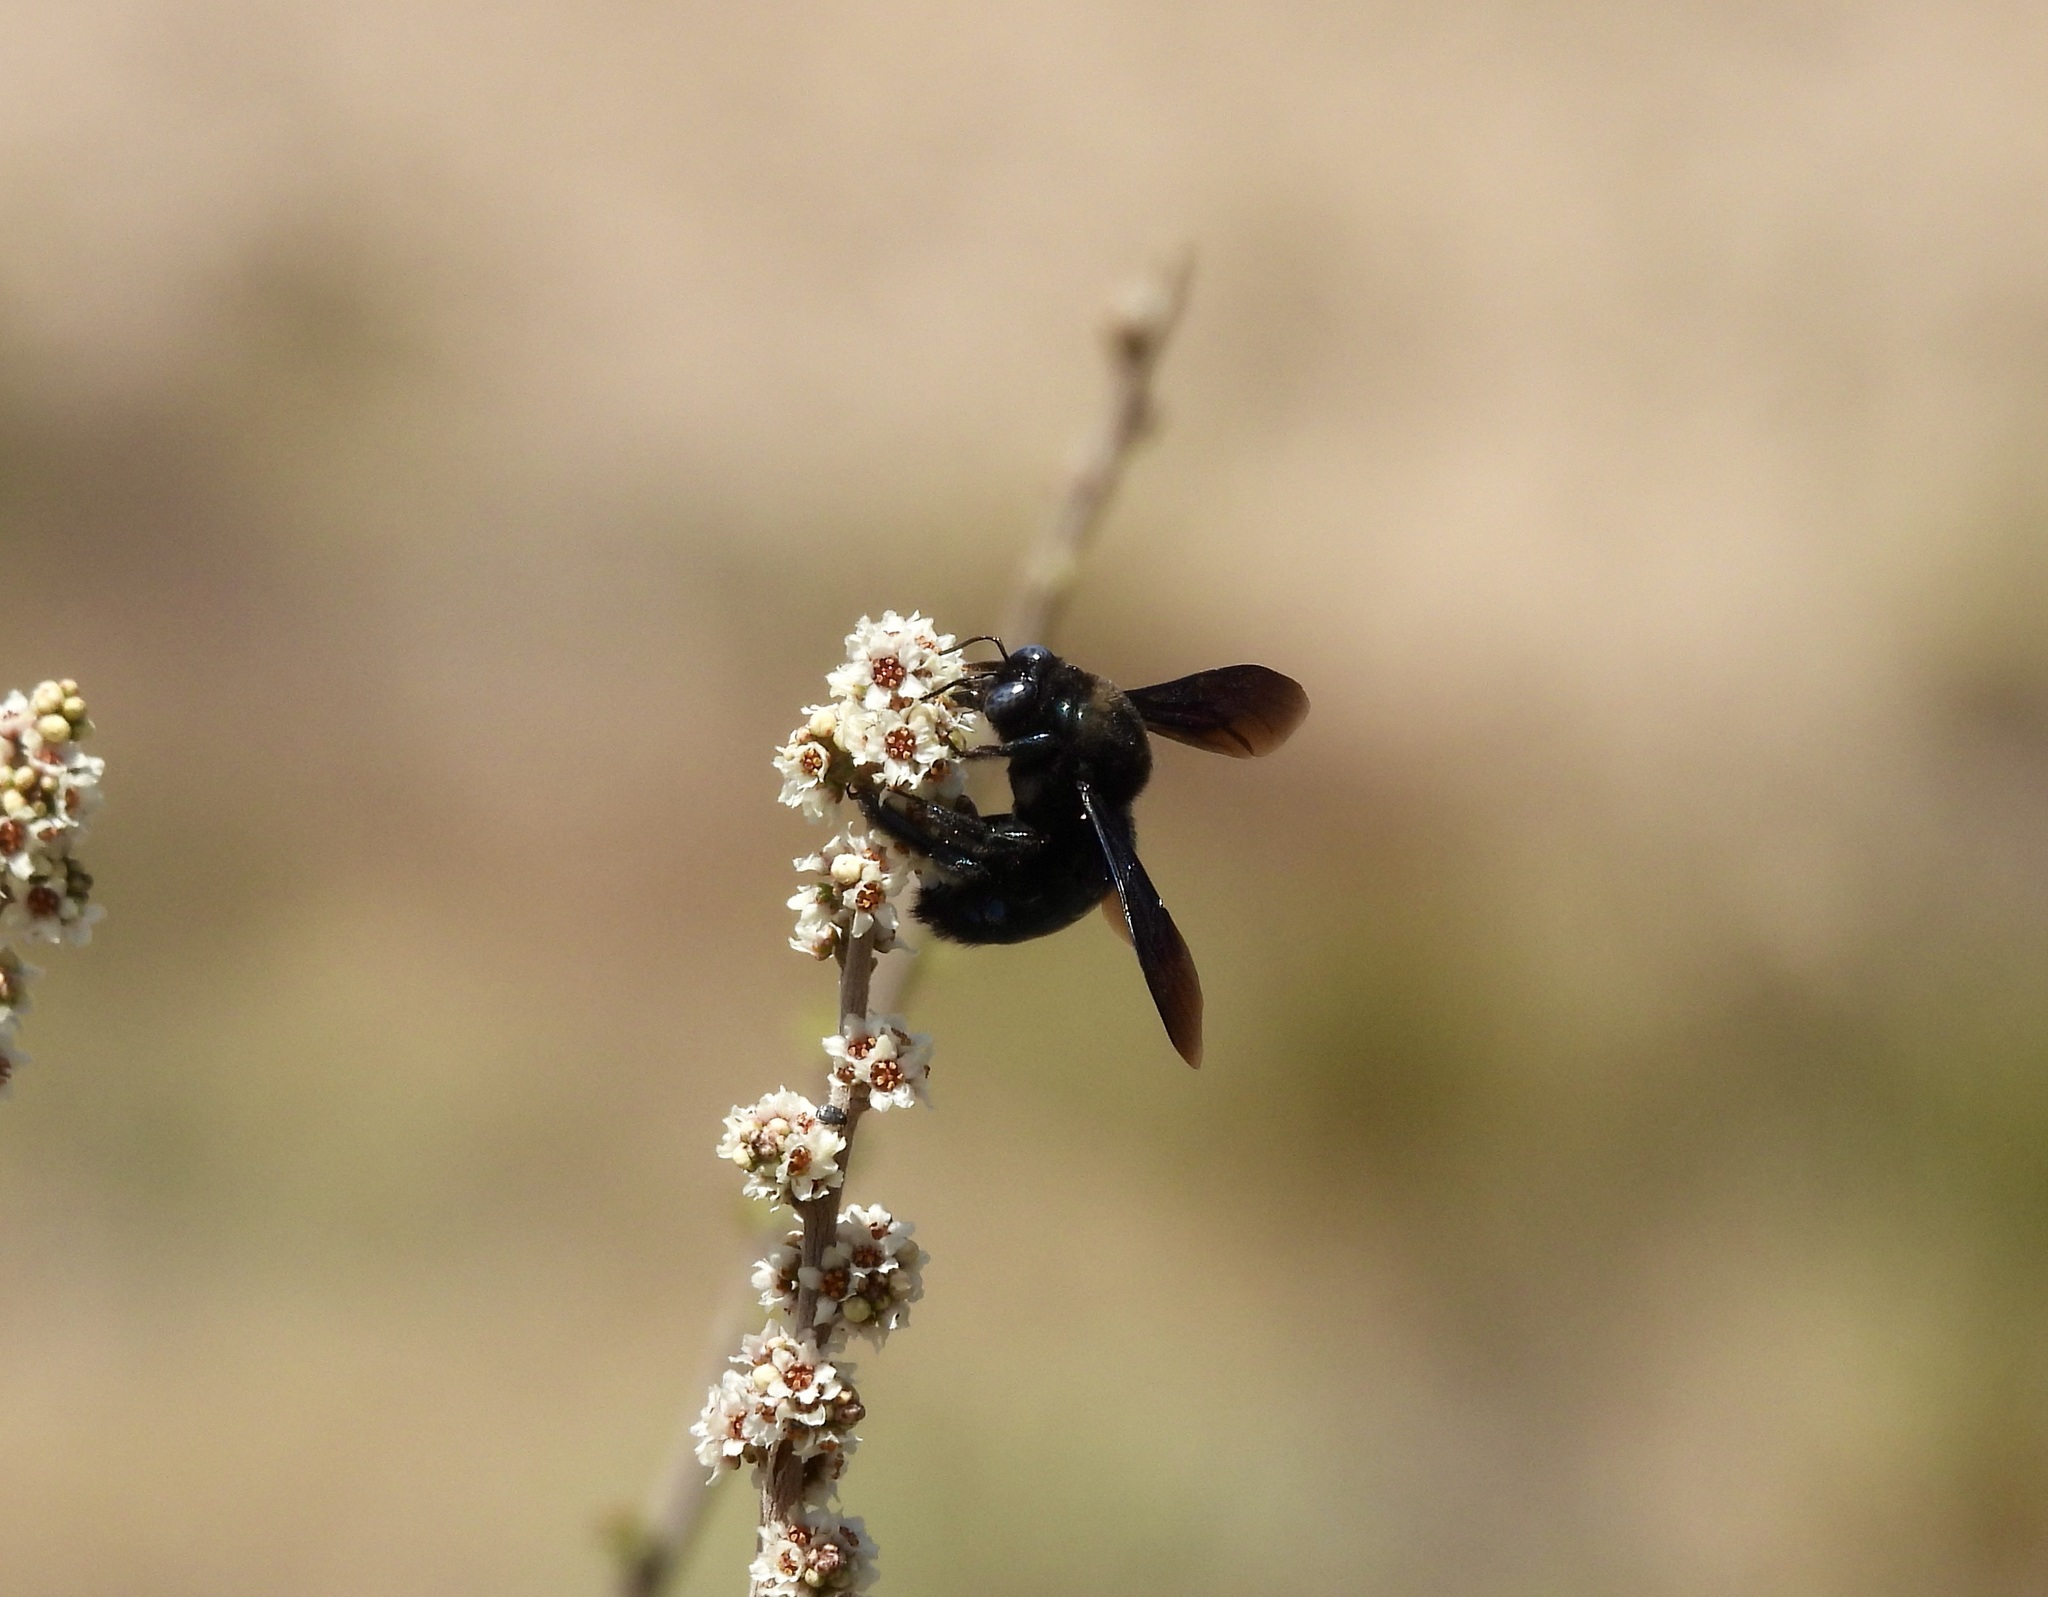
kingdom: Animalia
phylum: Arthropoda
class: Insecta
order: Hymenoptera
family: Apidae
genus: Xylocopa
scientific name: Xylocopa californica
